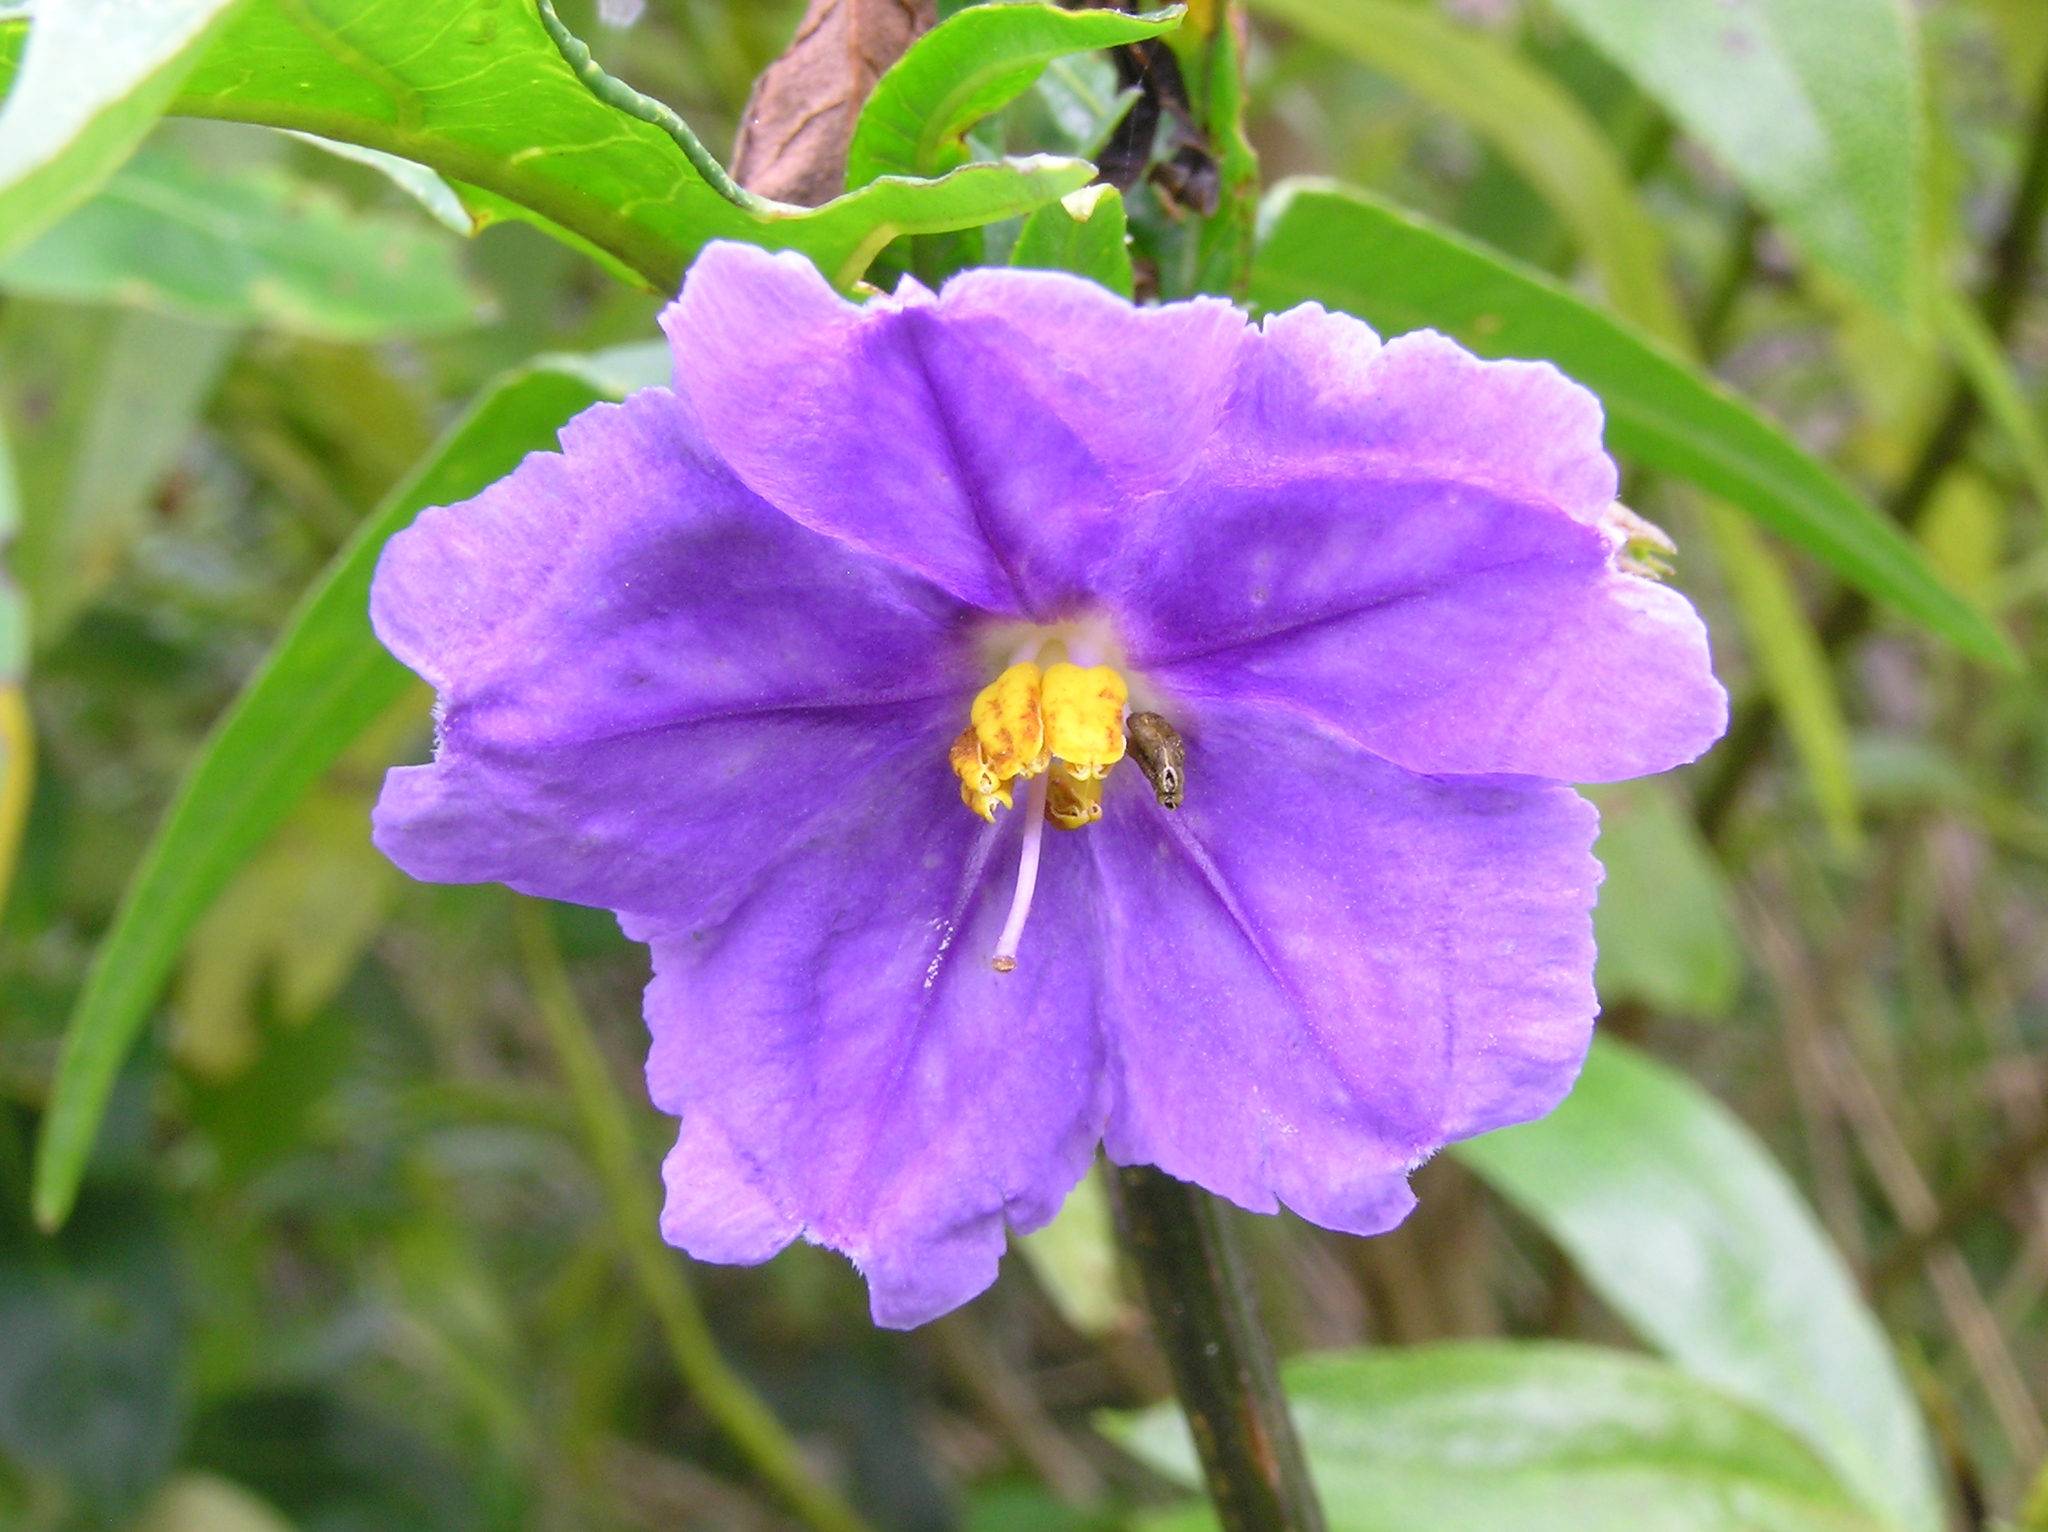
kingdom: Plantae
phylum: Tracheophyta
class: Magnoliopsida
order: Solanales
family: Solanaceae
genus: Solanum
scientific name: Solanum laciniatum
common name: Kangaroo-apple
